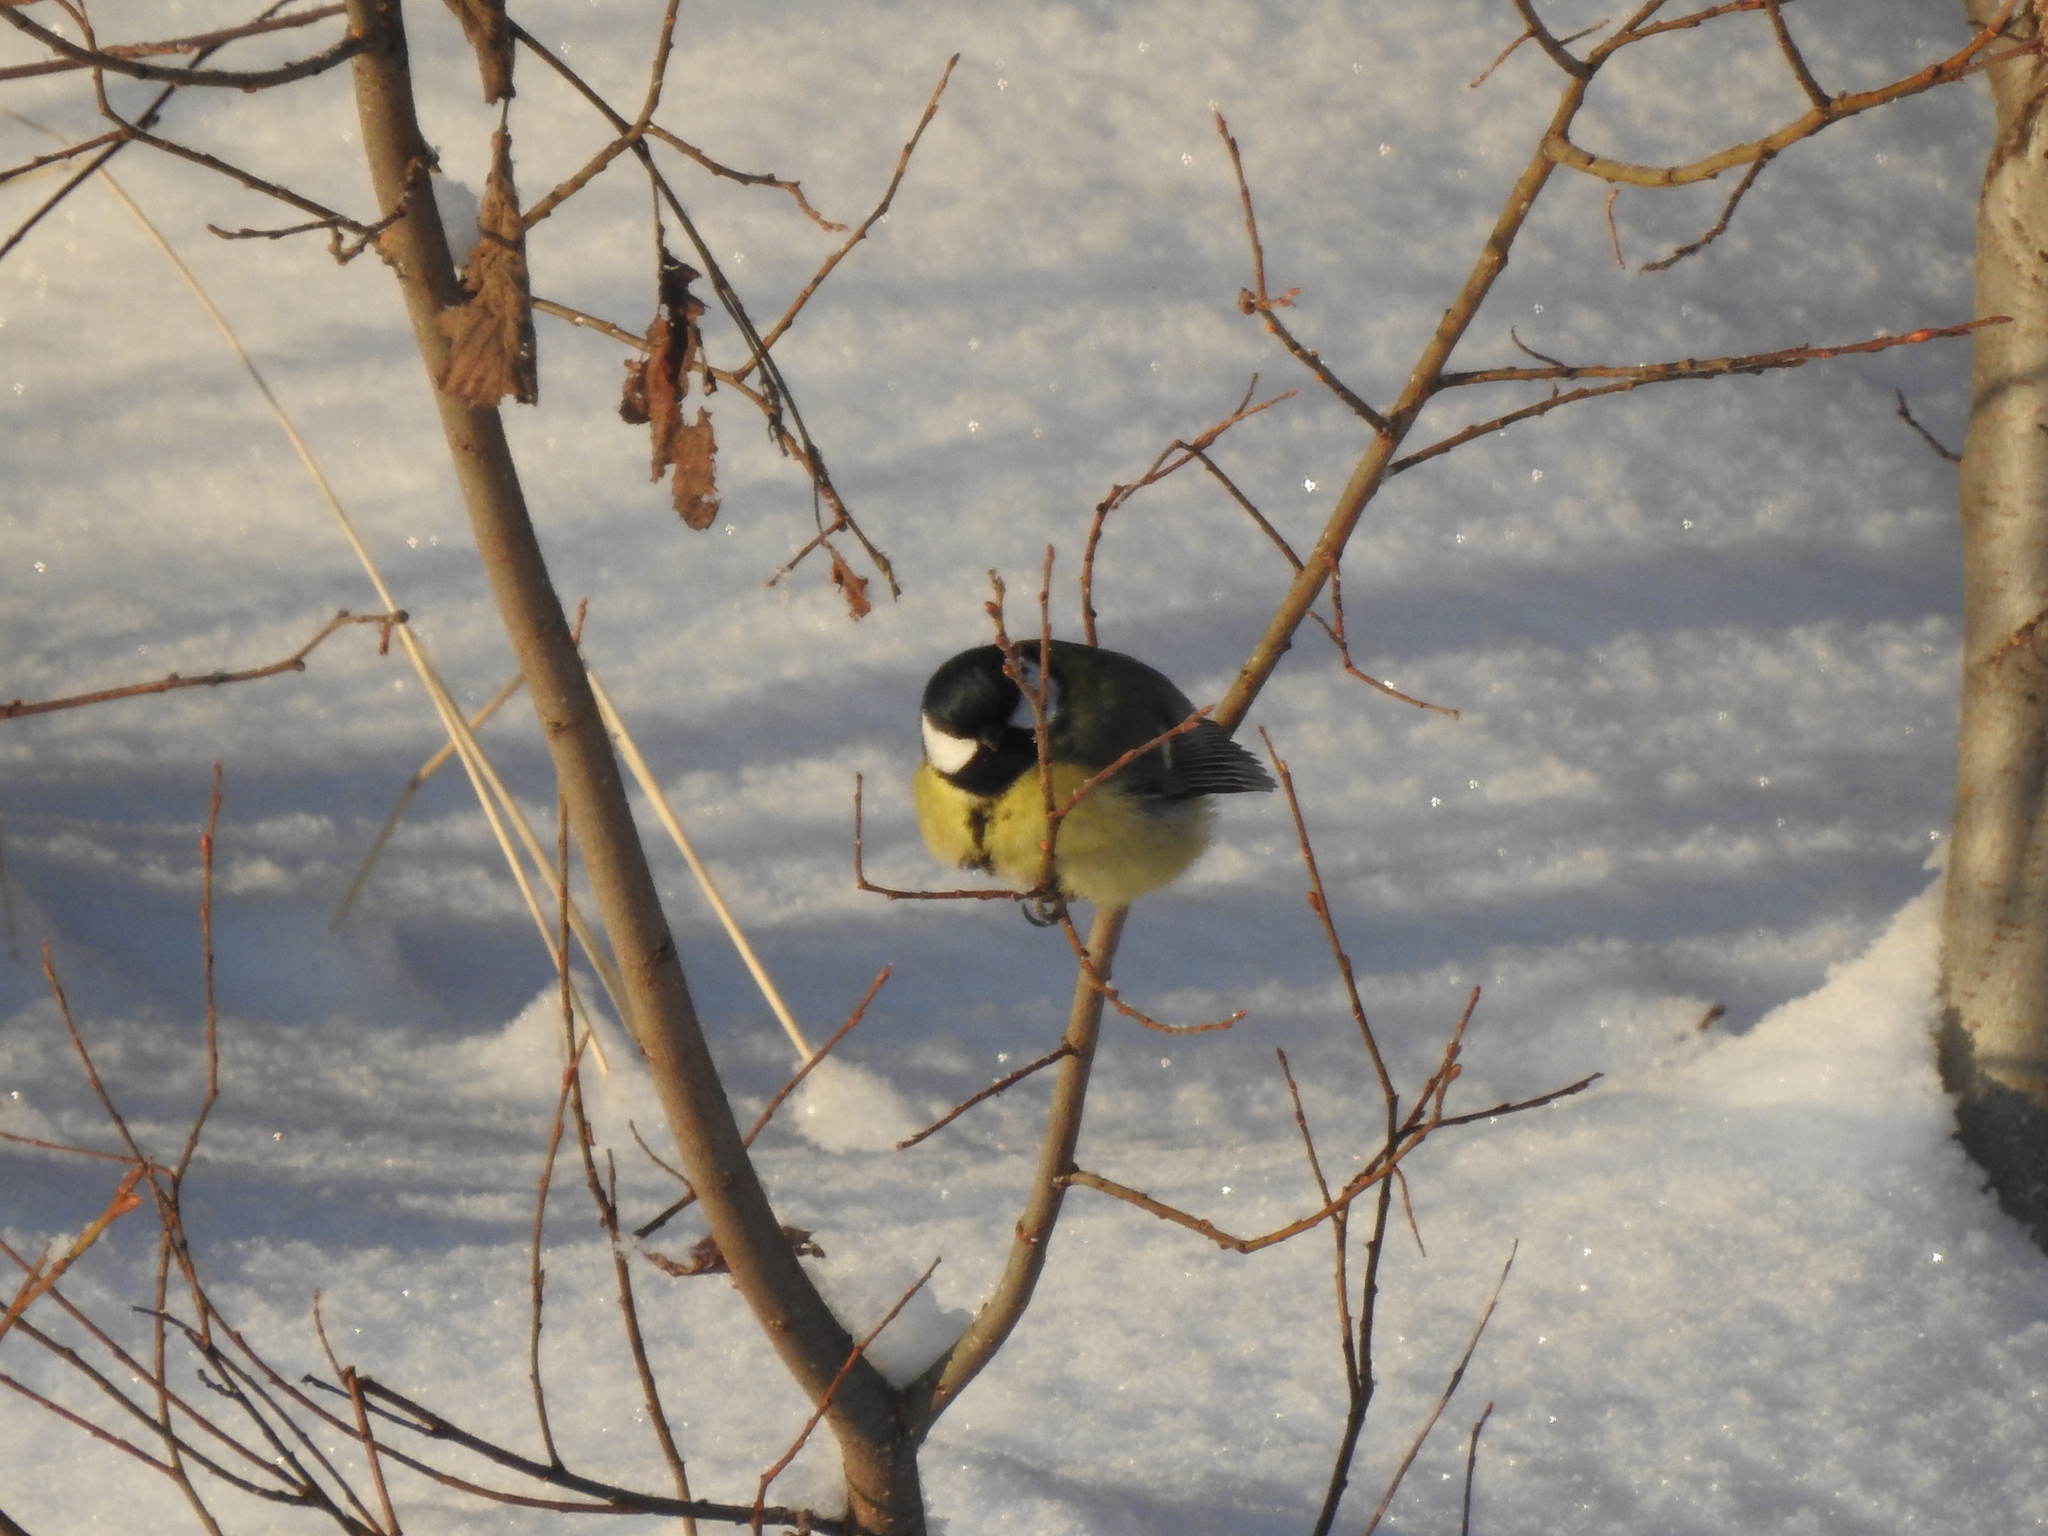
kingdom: Animalia
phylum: Chordata
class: Aves
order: Passeriformes
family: Paridae
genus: Parus
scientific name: Parus major
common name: Great tit
